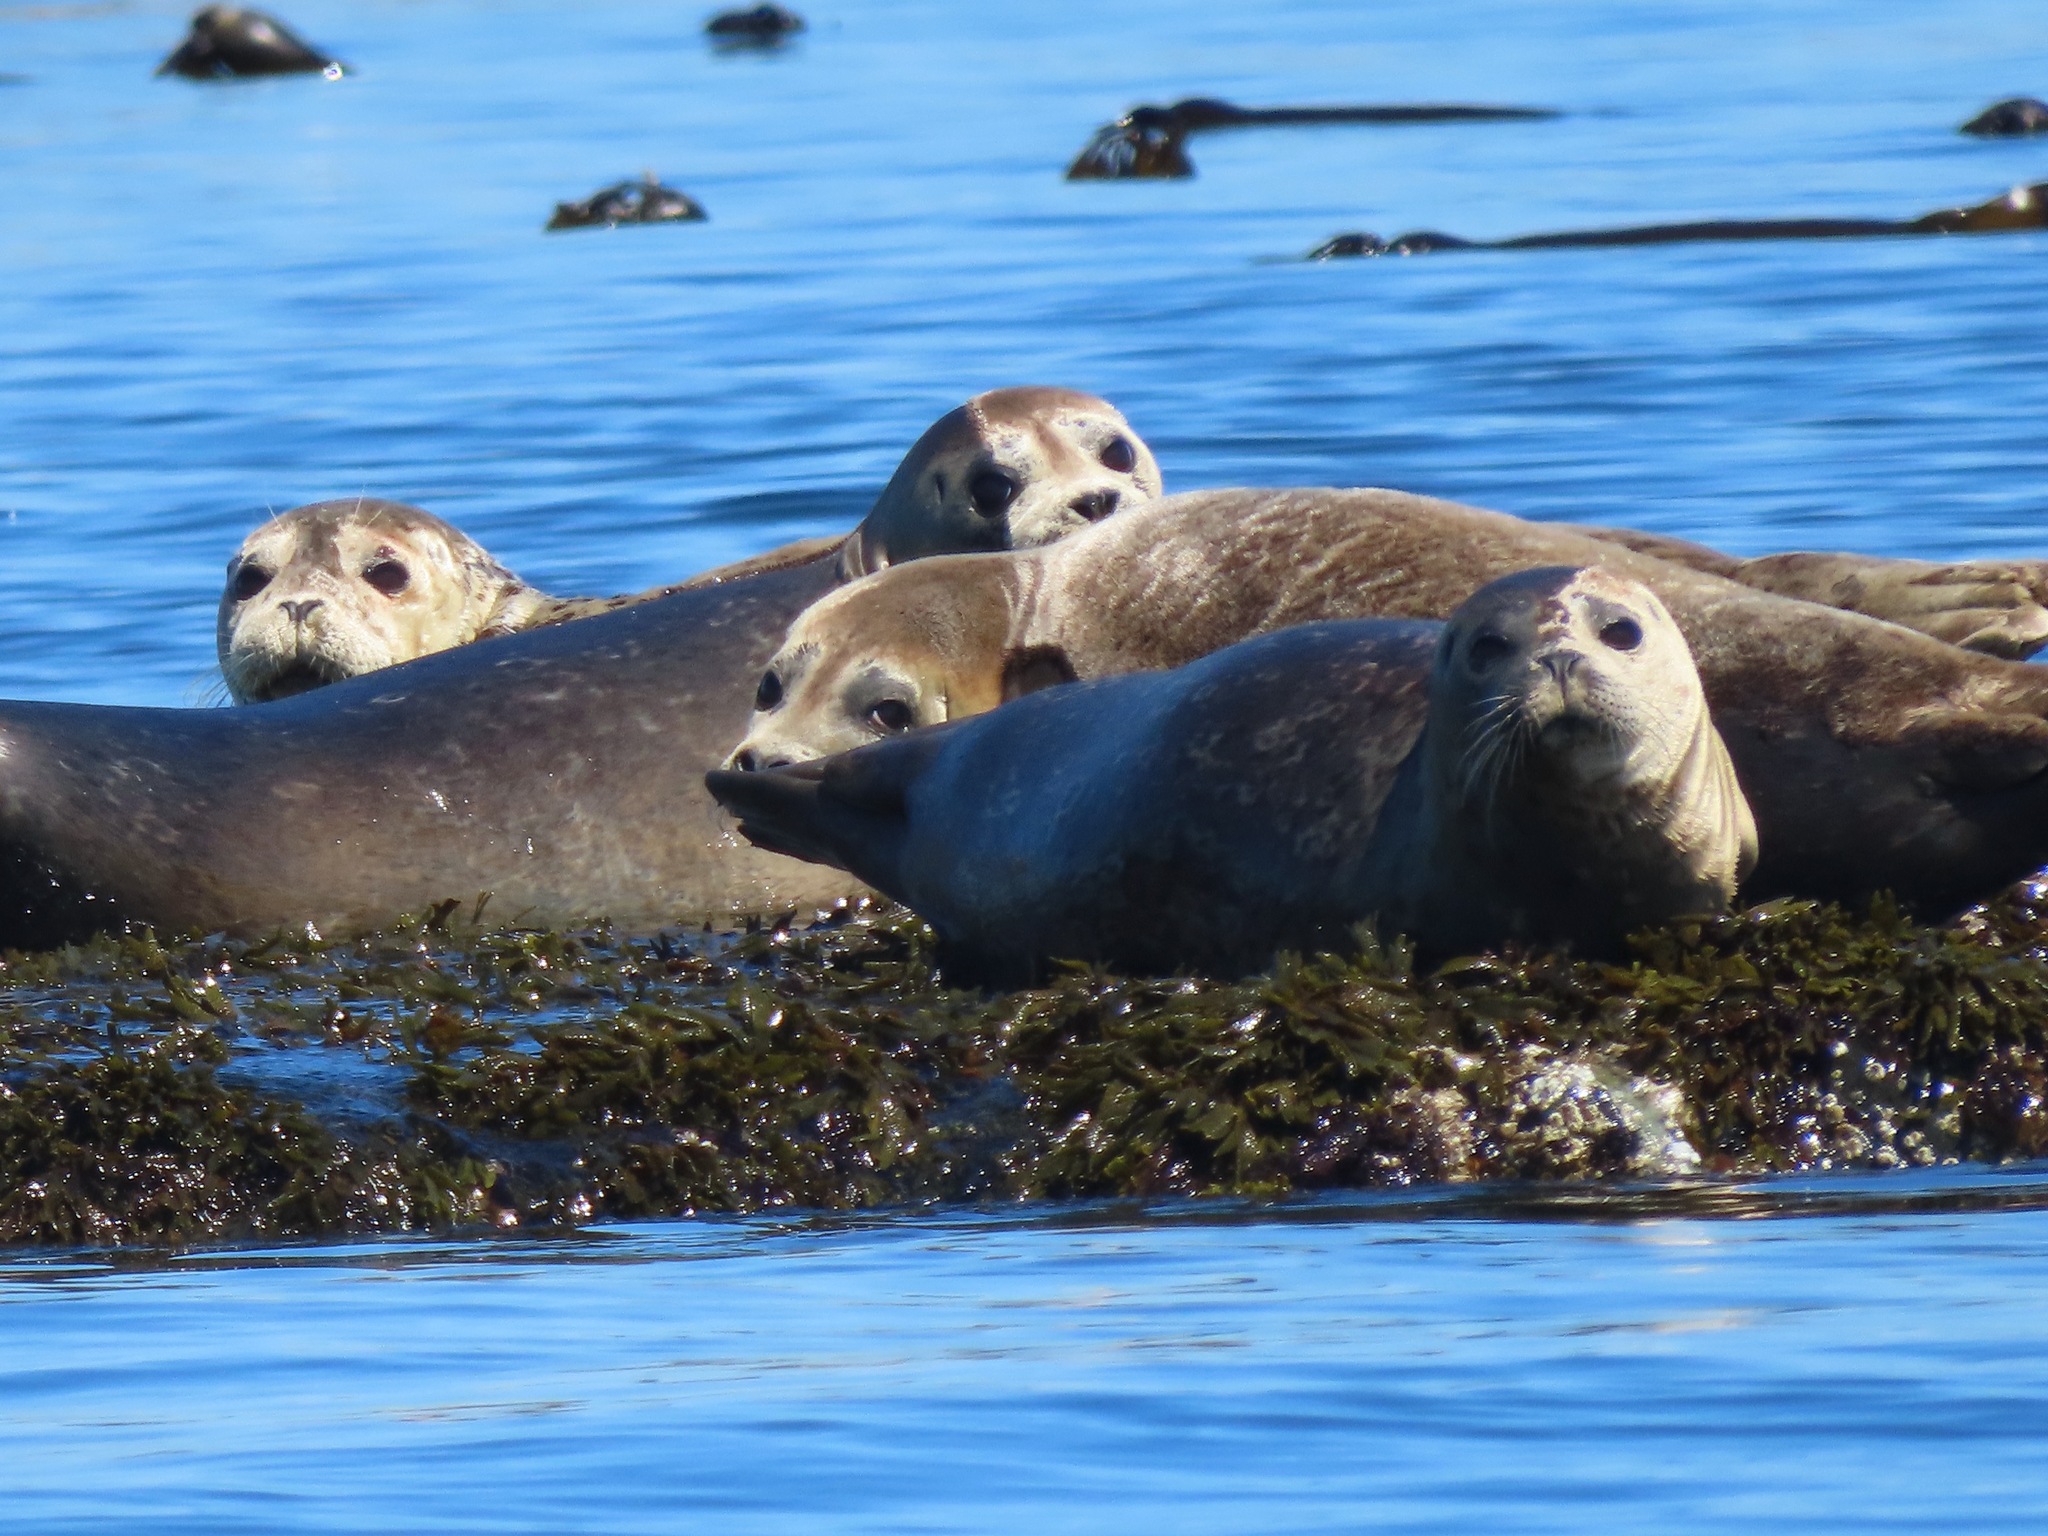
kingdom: Animalia
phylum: Chordata
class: Mammalia
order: Carnivora
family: Phocidae
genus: Phoca
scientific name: Phoca vitulina
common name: Harbor seal
